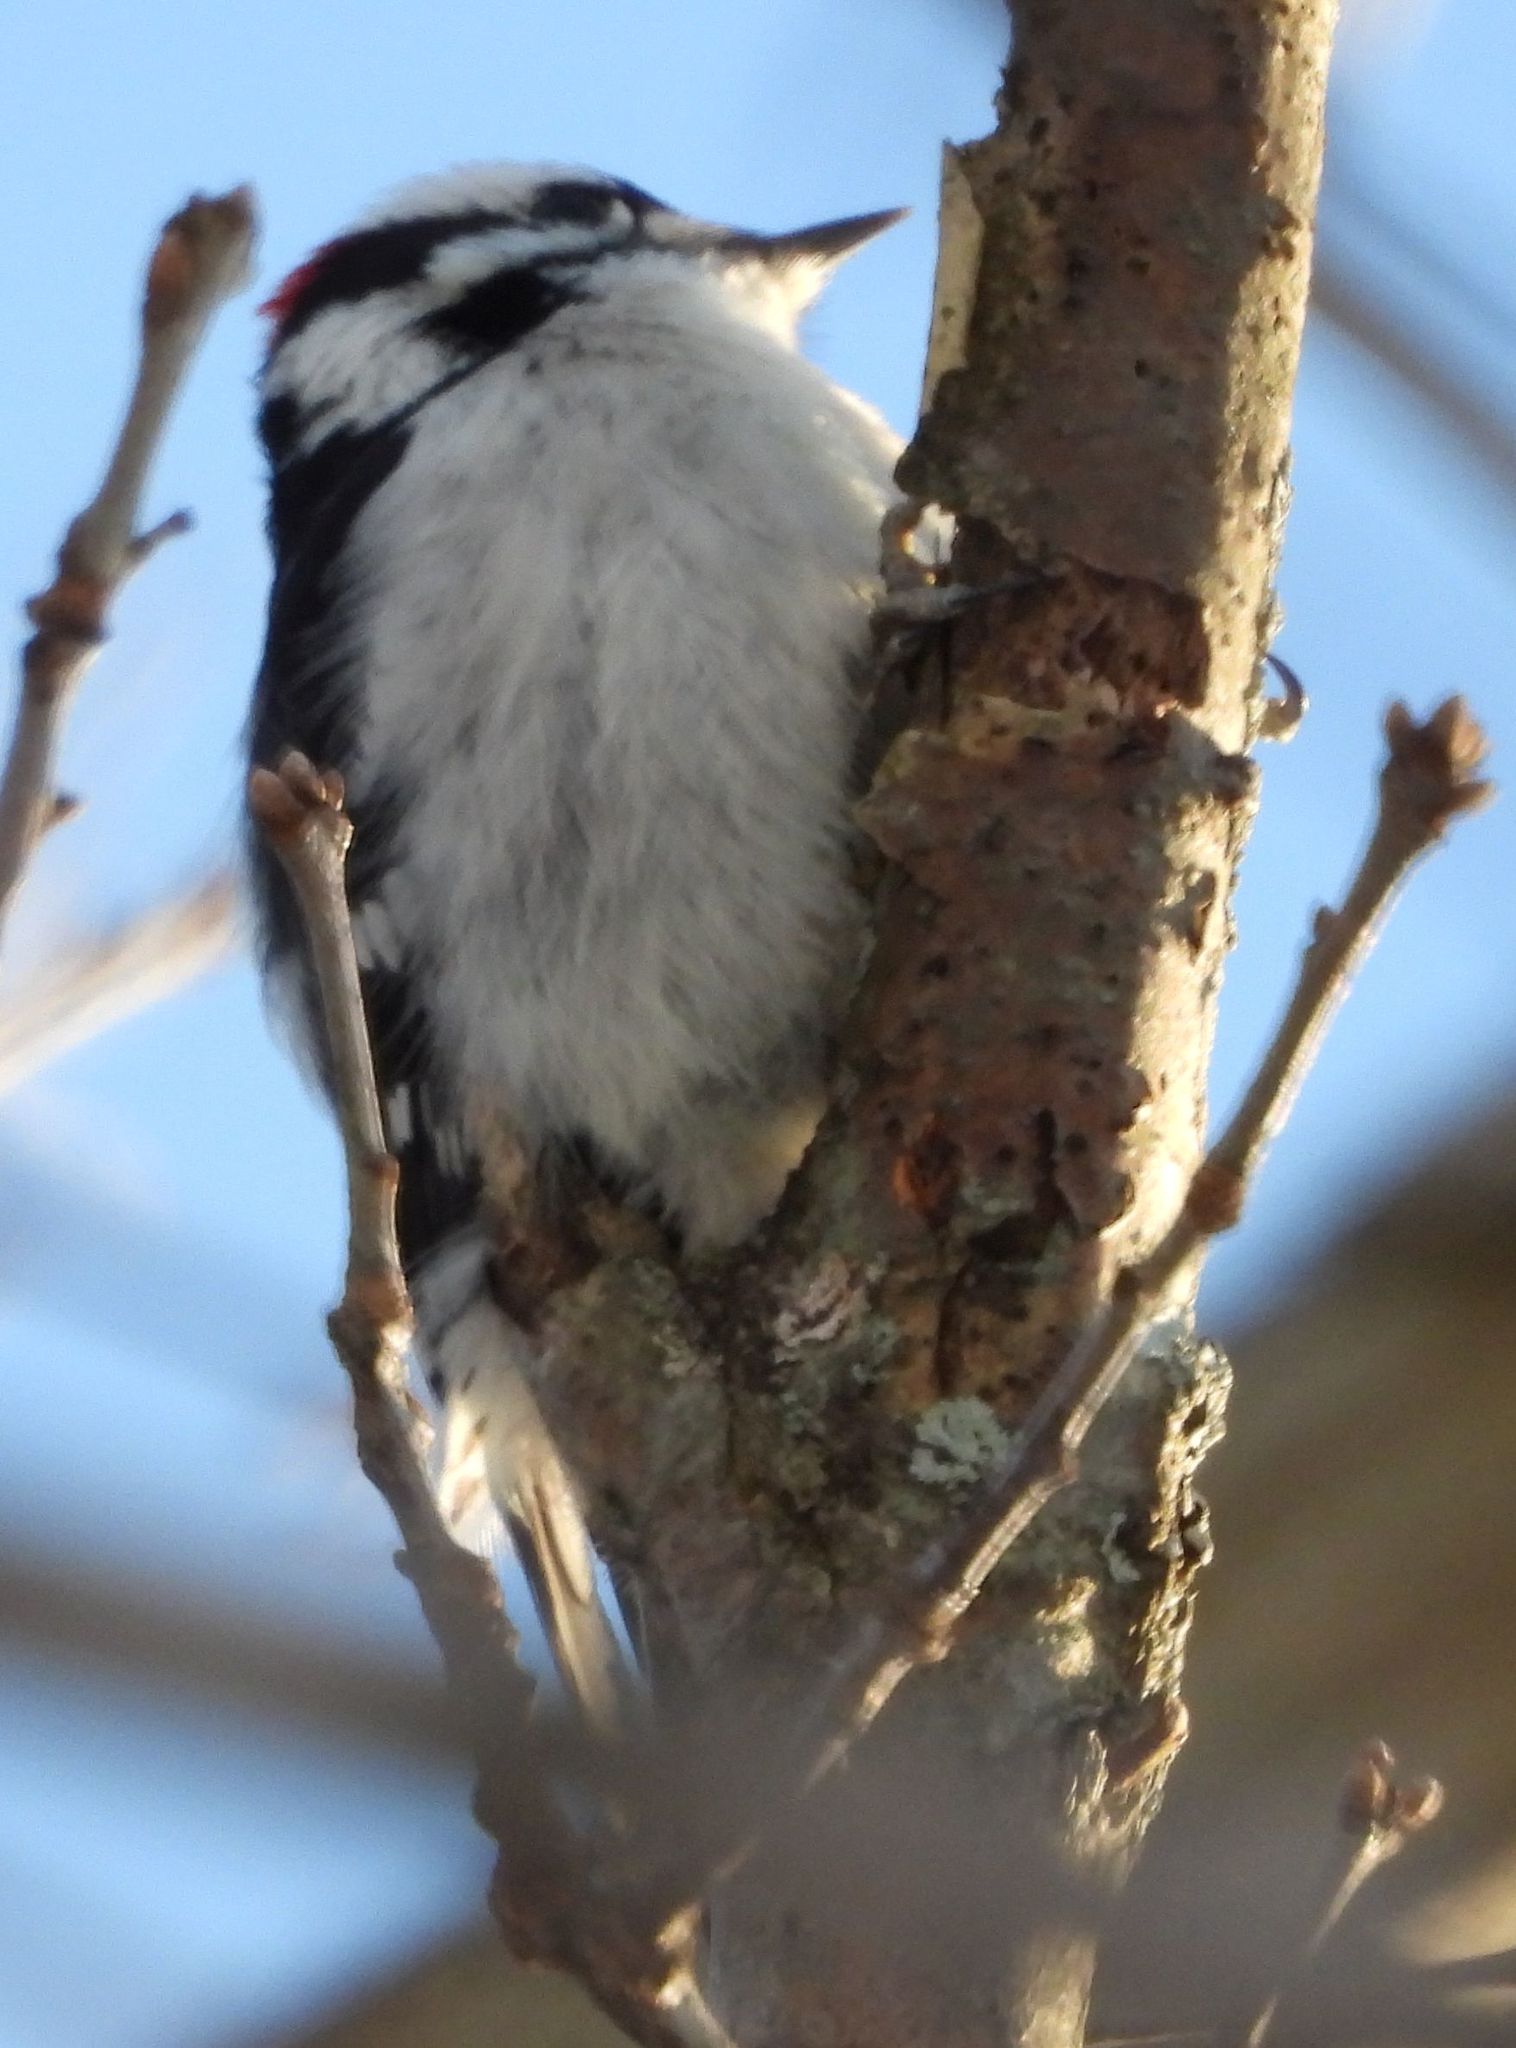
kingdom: Animalia
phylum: Chordata
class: Aves
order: Piciformes
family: Picidae
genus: Dryobates
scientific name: Dryobates pubescens
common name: Downy woodpecker
